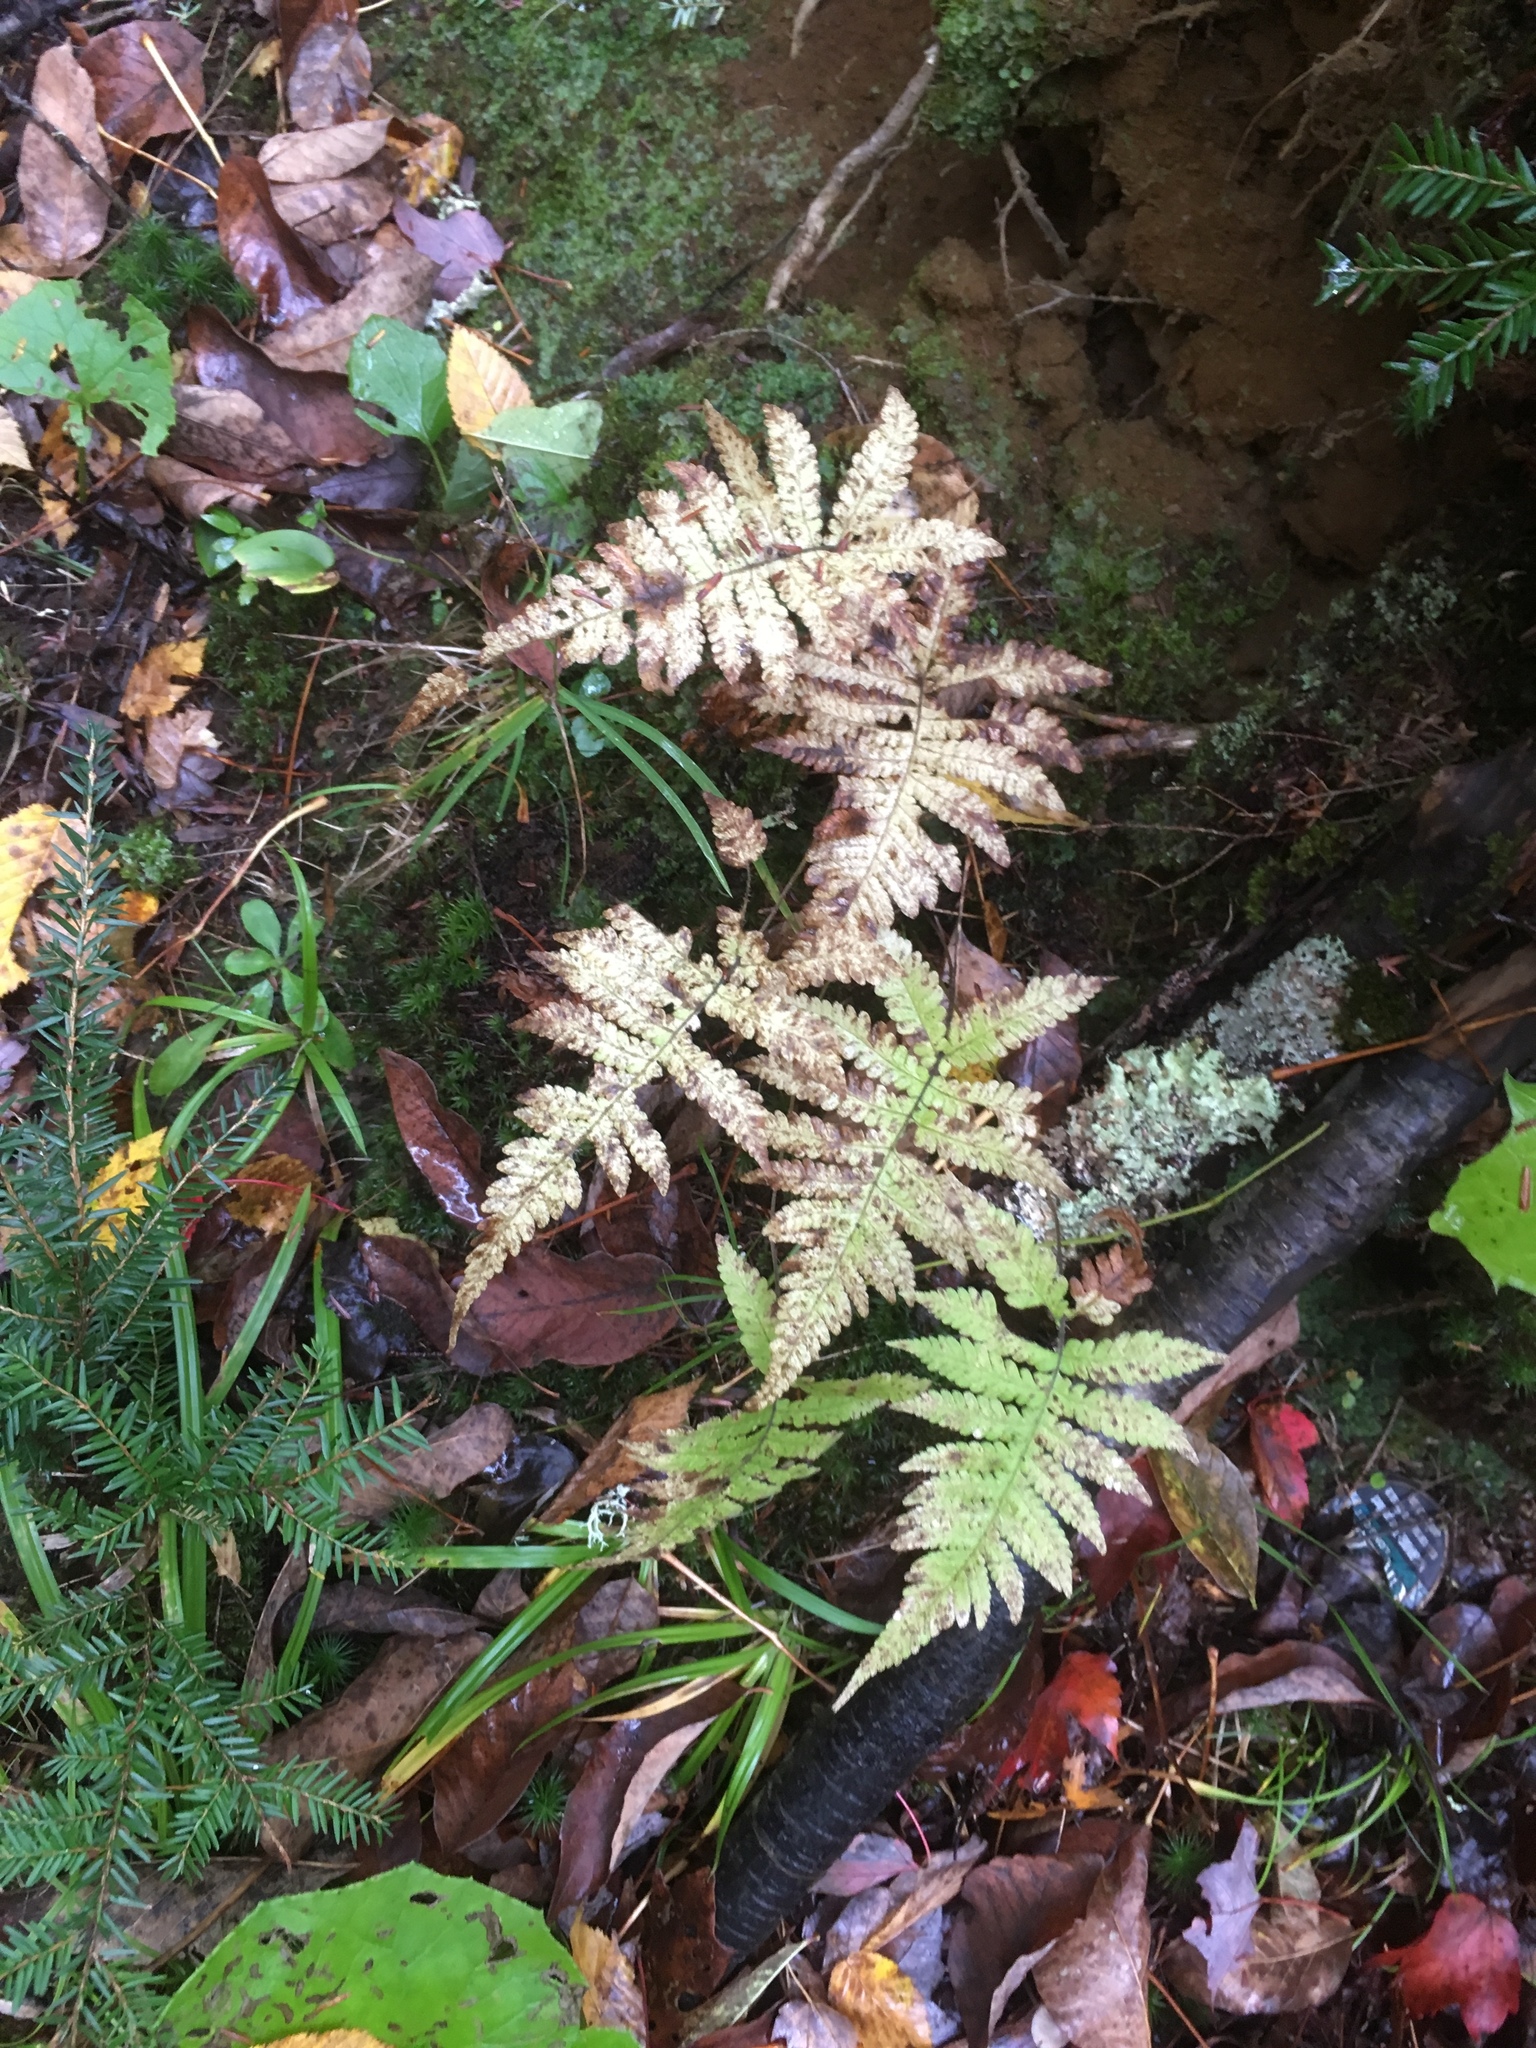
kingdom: Plantae
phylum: Tracheophyta
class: Polypodiopsida
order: Polypodiales
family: Thelypteridaceae
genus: Phegopteris
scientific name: Phegopteris connectilis
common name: Beech fern
